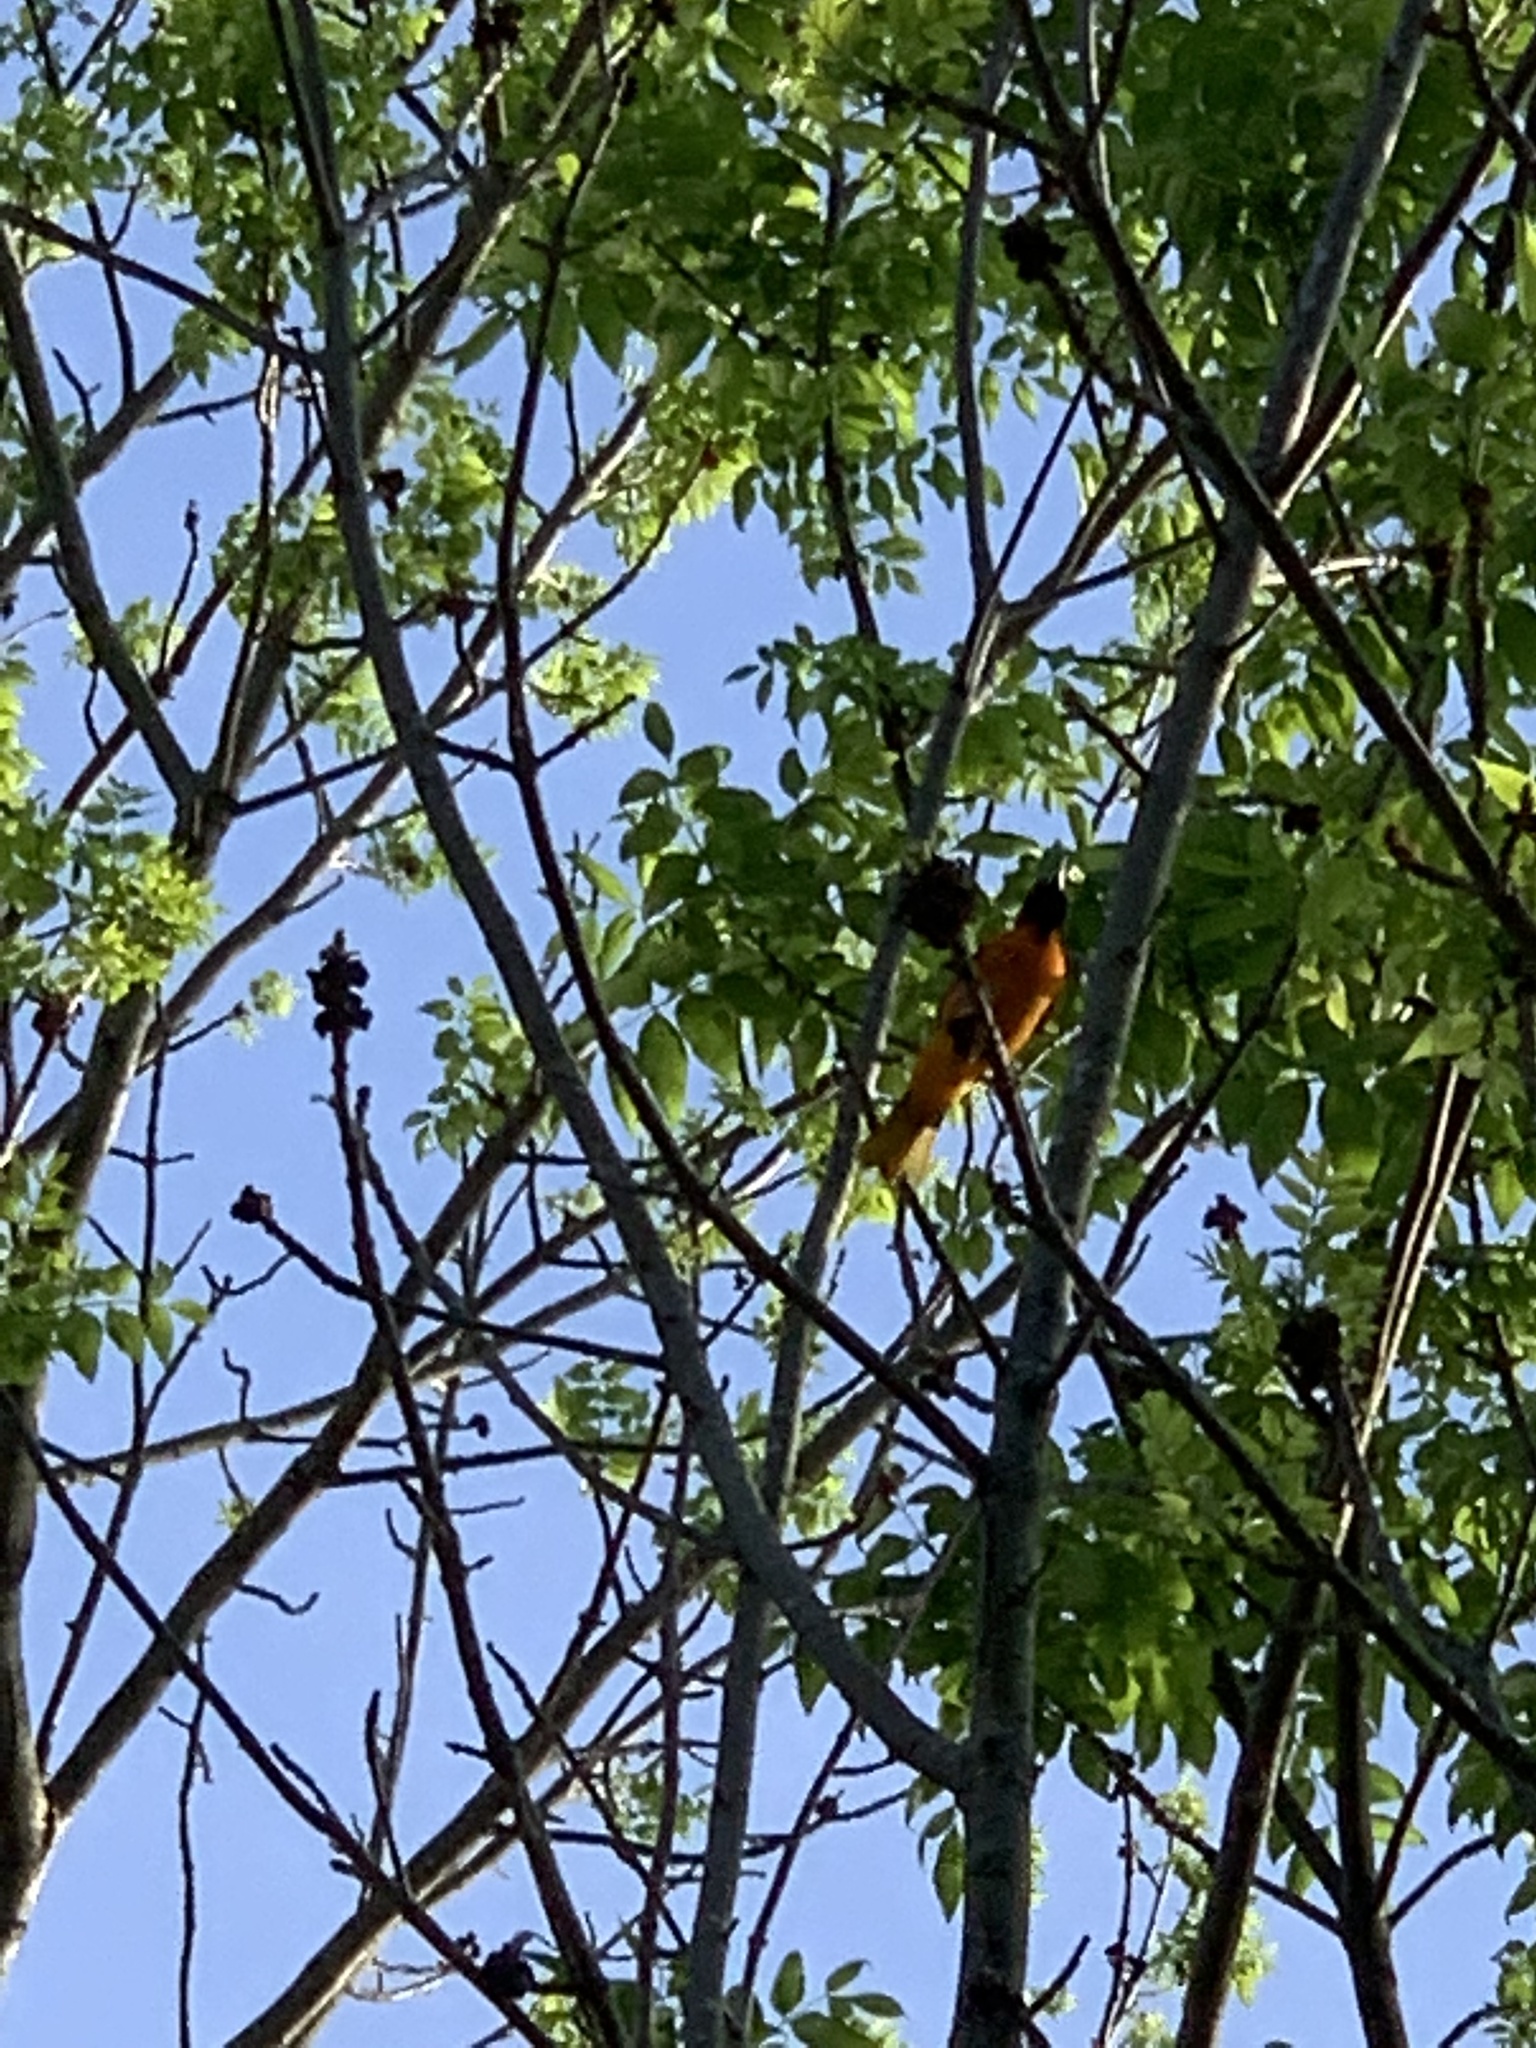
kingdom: Animalia
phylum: Chordata
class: Aves
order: Passeriformes
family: Icteridae
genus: Icterus
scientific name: Icterus galbula
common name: Baltimore oriole
